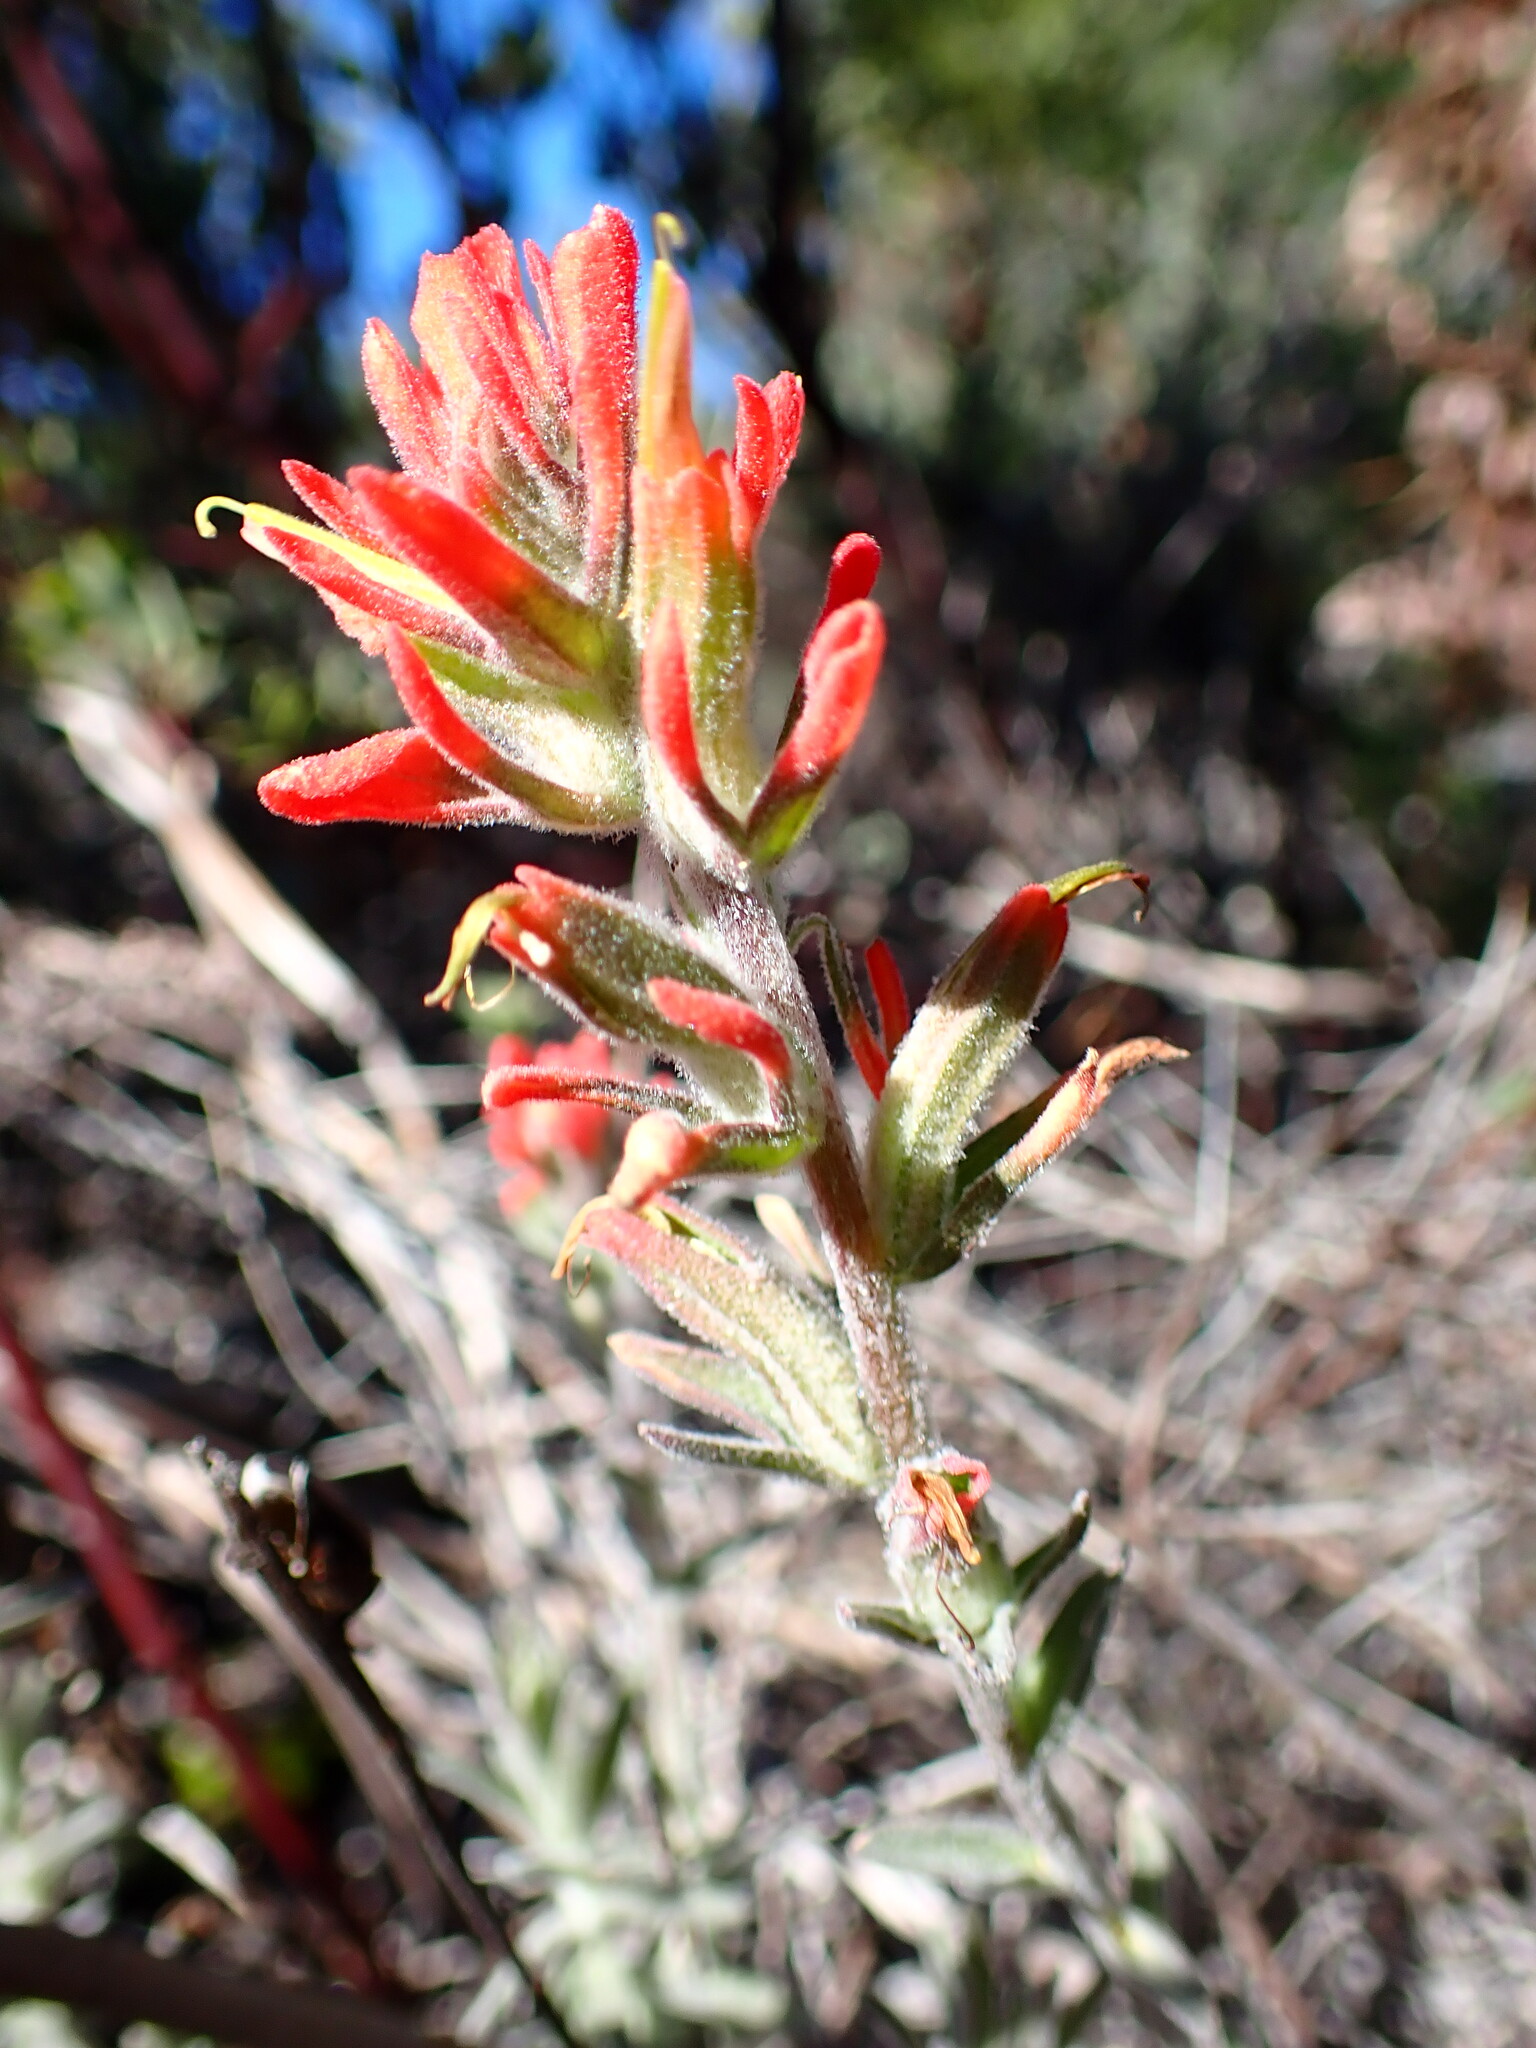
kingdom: Plantae
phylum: Tracheophyta
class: Magnoliopsida
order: Lamiales
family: Orobanchaceae
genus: Castilleja
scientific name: Castilleja foliolosa
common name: Woolly indian paintbrush
